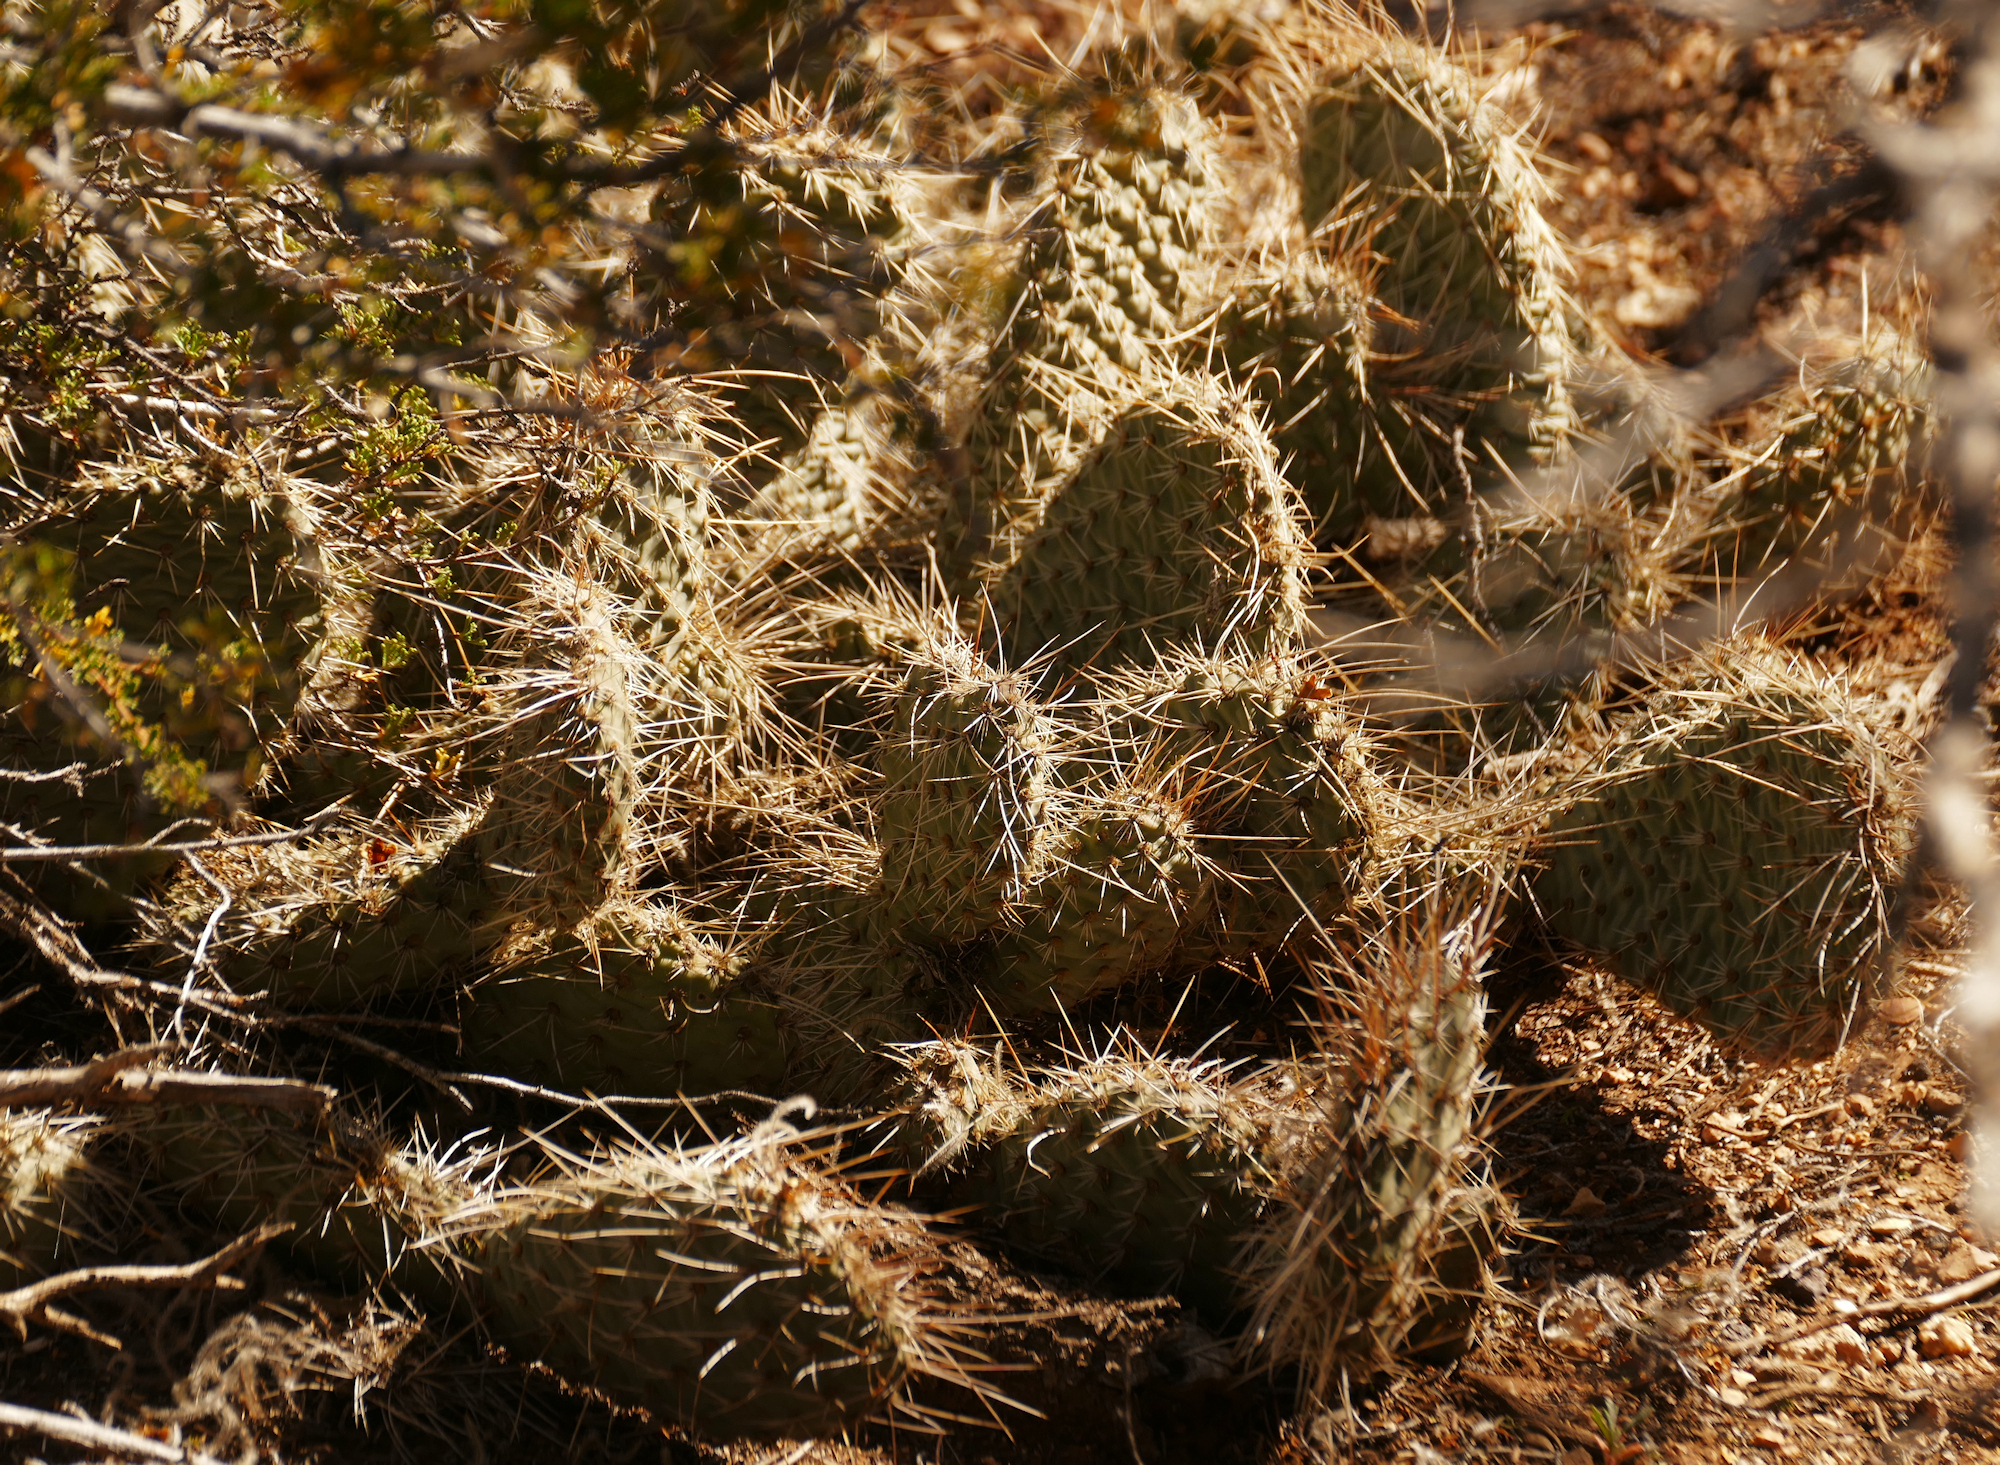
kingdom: Plantae
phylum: Tracheophyta
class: Magnoliopsida
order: Caryophyllales
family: Cactaceae
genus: Opuntia
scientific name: Opuntia polyacantha
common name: Plains prickly-pear
